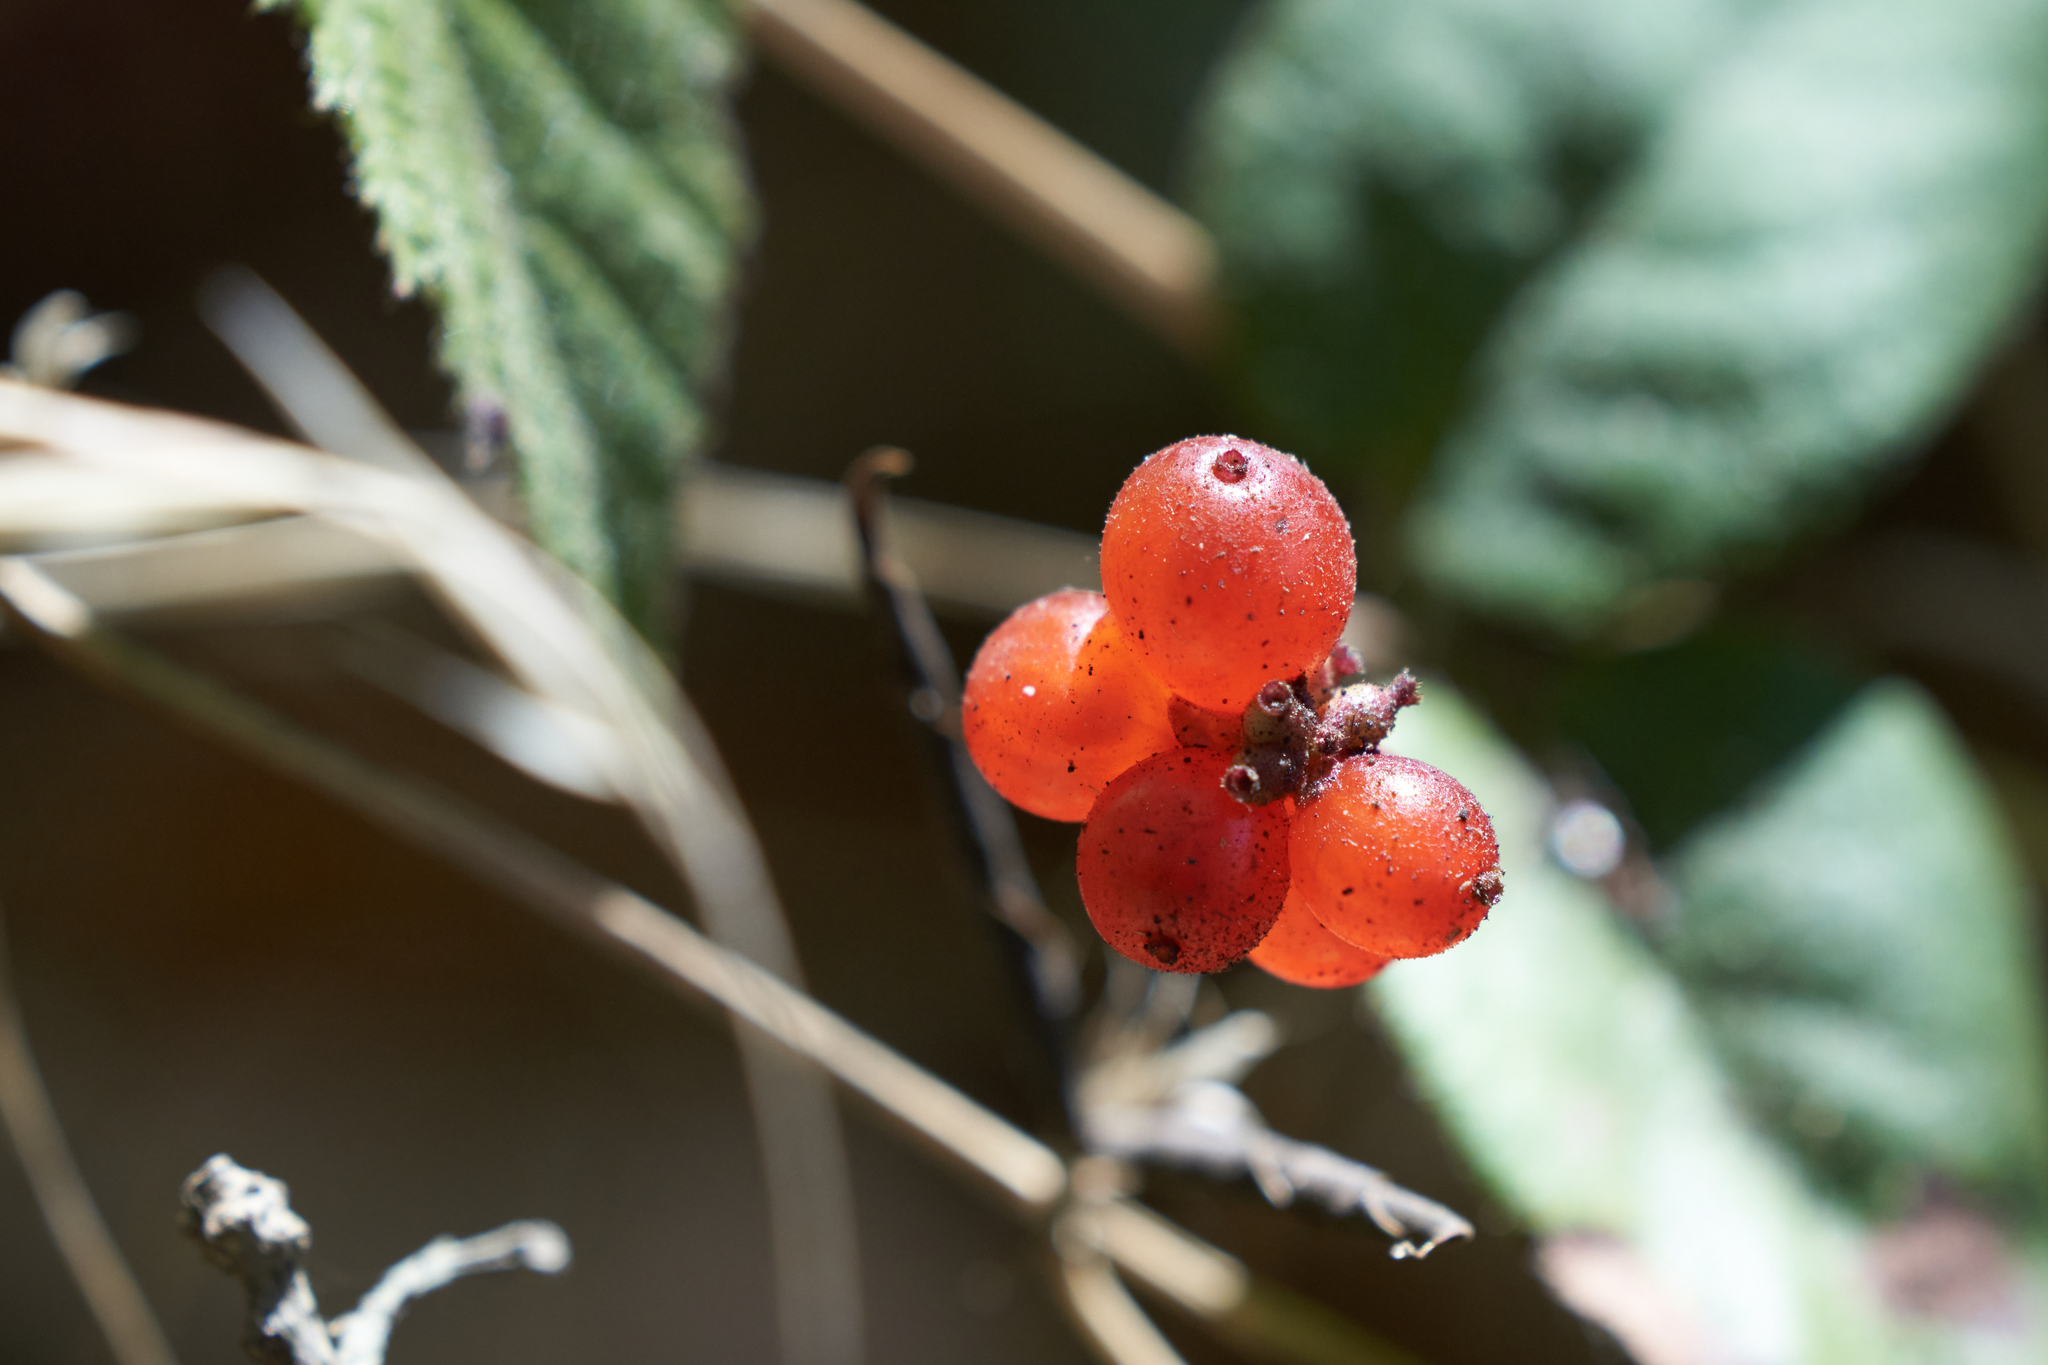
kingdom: Plantae
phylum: Tracheophyta
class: Magnoliopsida
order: Dipsacales
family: Caprifoliaceae
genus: Lonicera
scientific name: Lonicera hispidula
